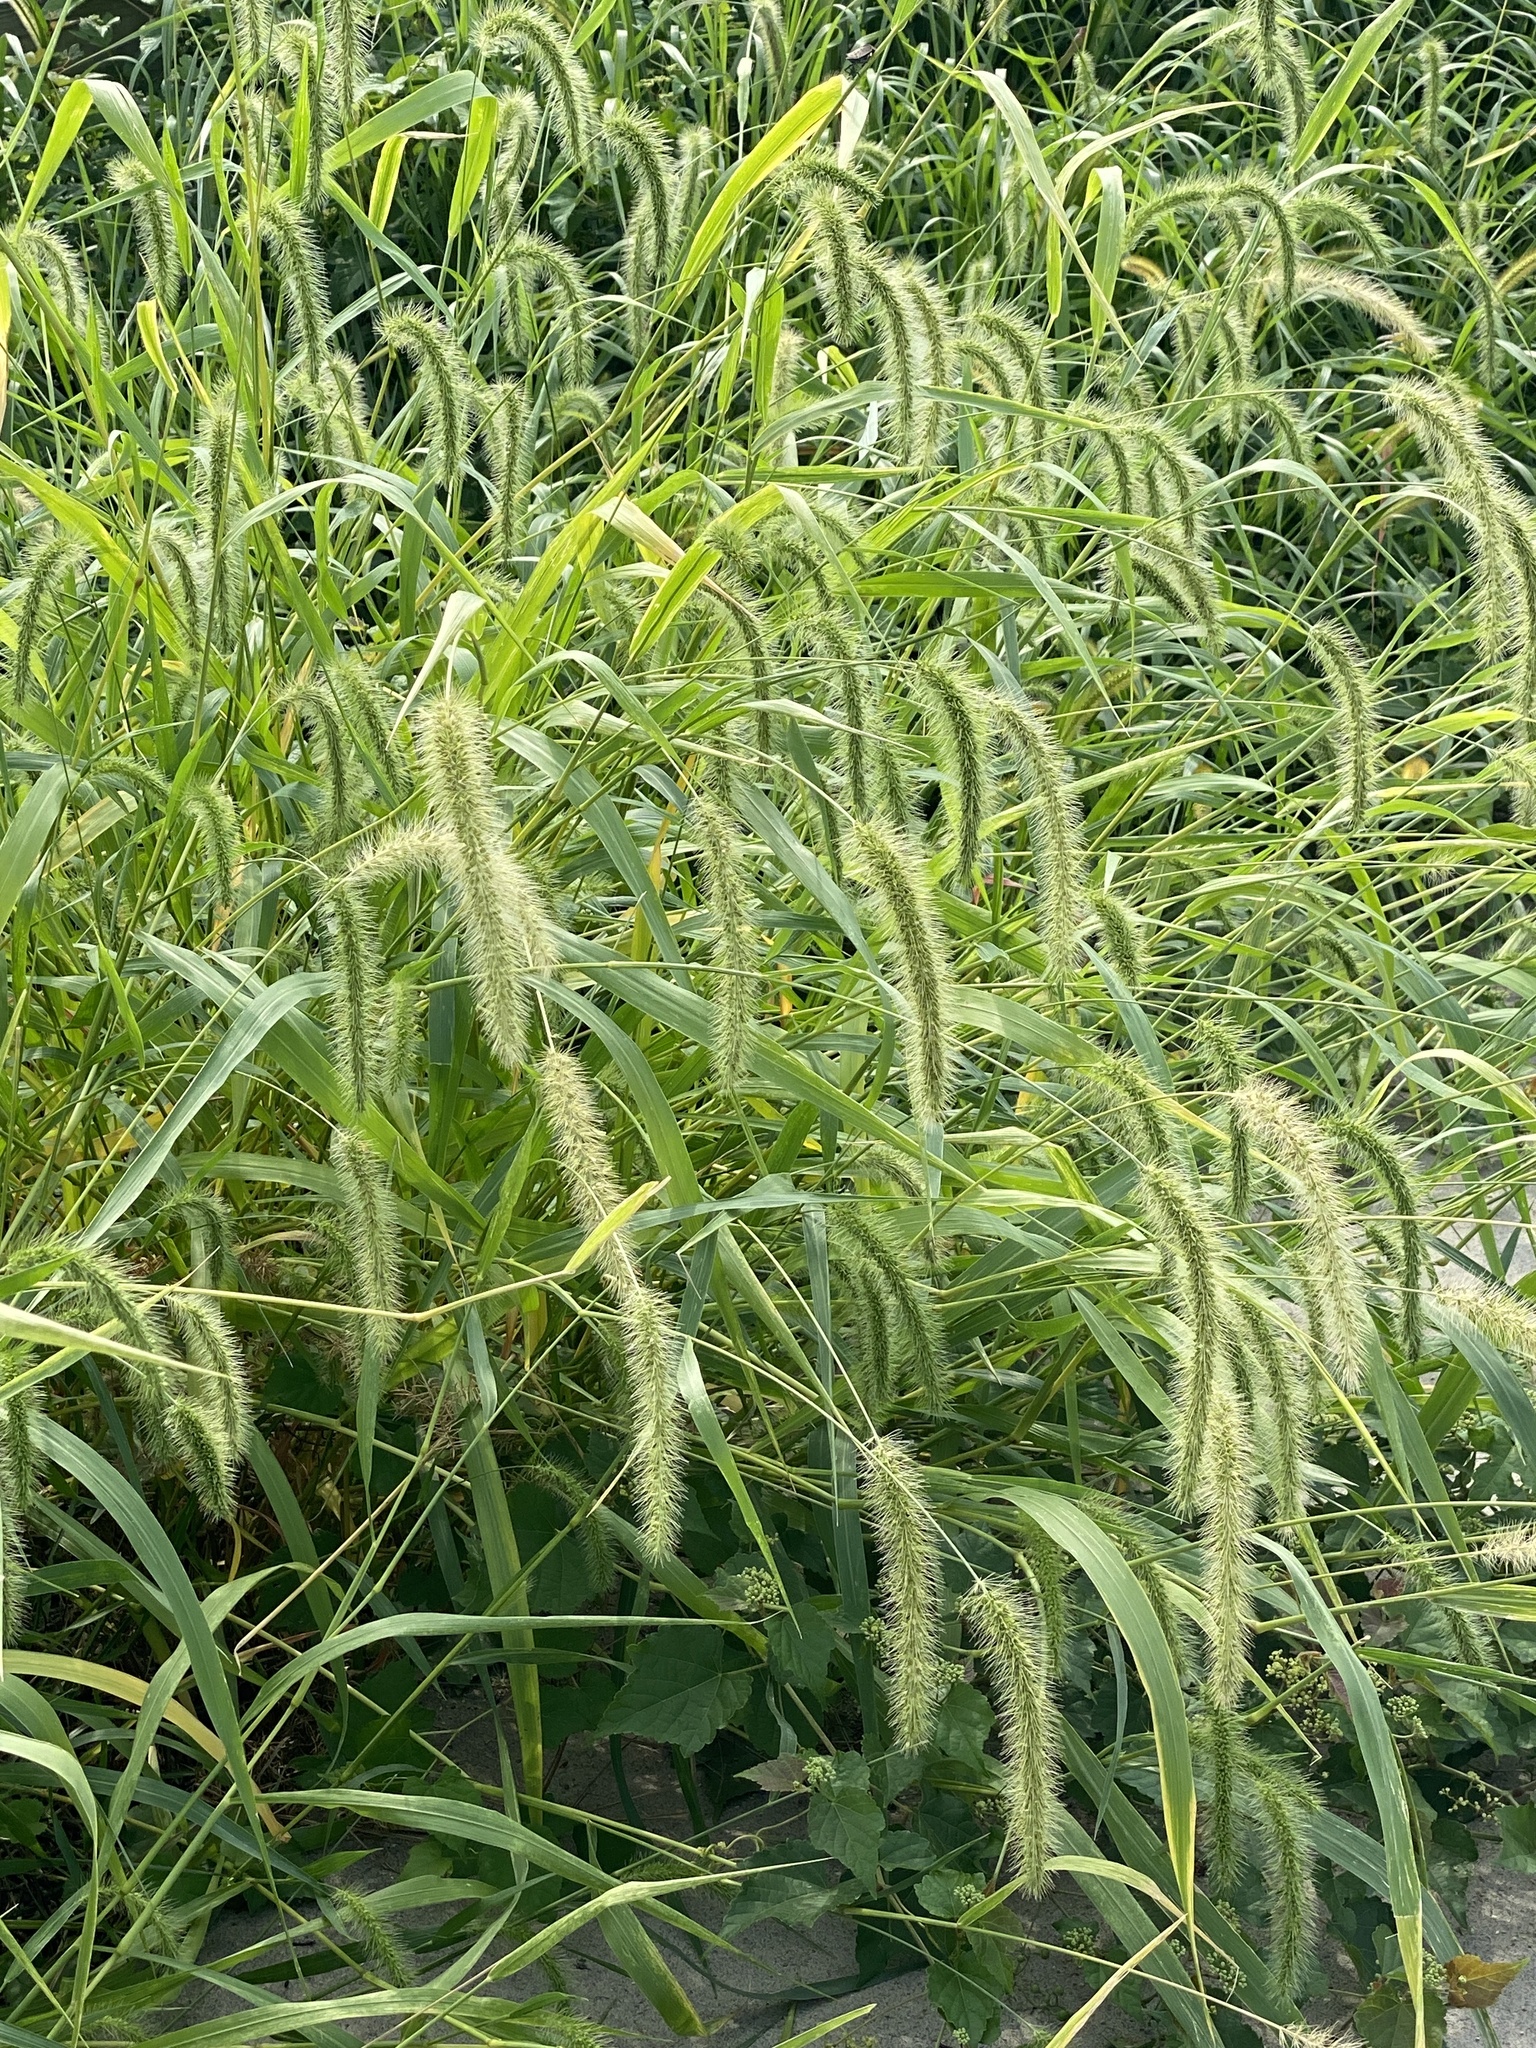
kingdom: Plantae
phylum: Tracheophyta
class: Liliopsida
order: Poales
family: Poaceae
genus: Setaria
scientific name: Setaria faberi
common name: Nodding bristle-grass
